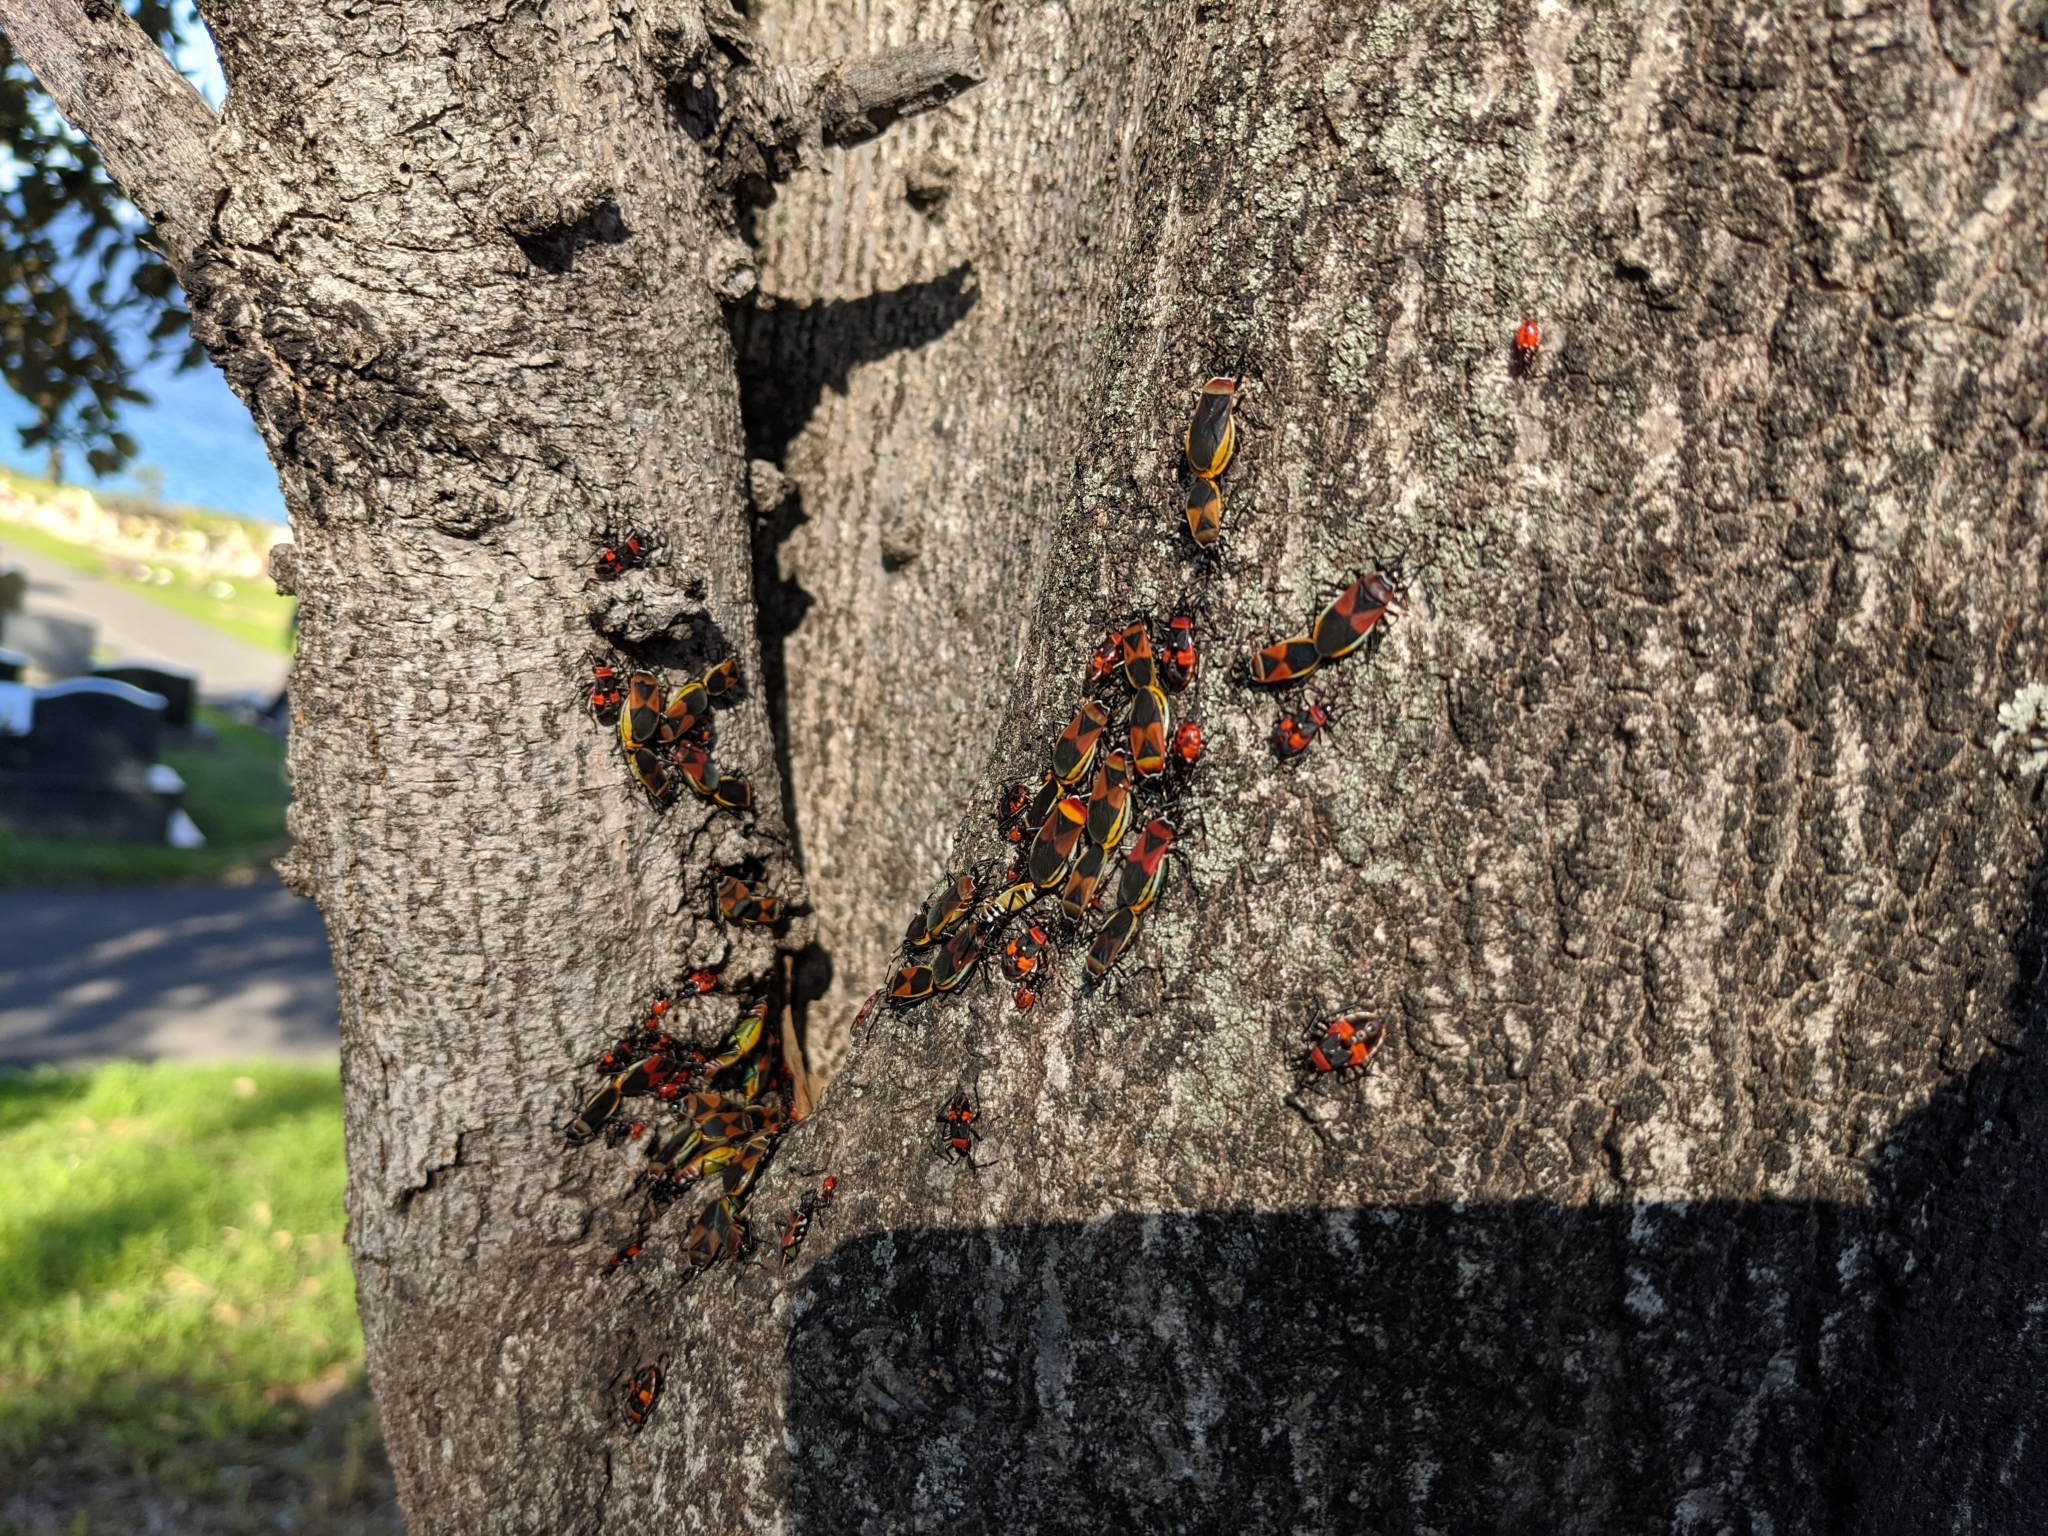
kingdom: Animalia
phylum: Arthropoda
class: Insecta
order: Hemiptera
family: Pyrrhocoridae
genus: Dindymus
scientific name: Dindymus
